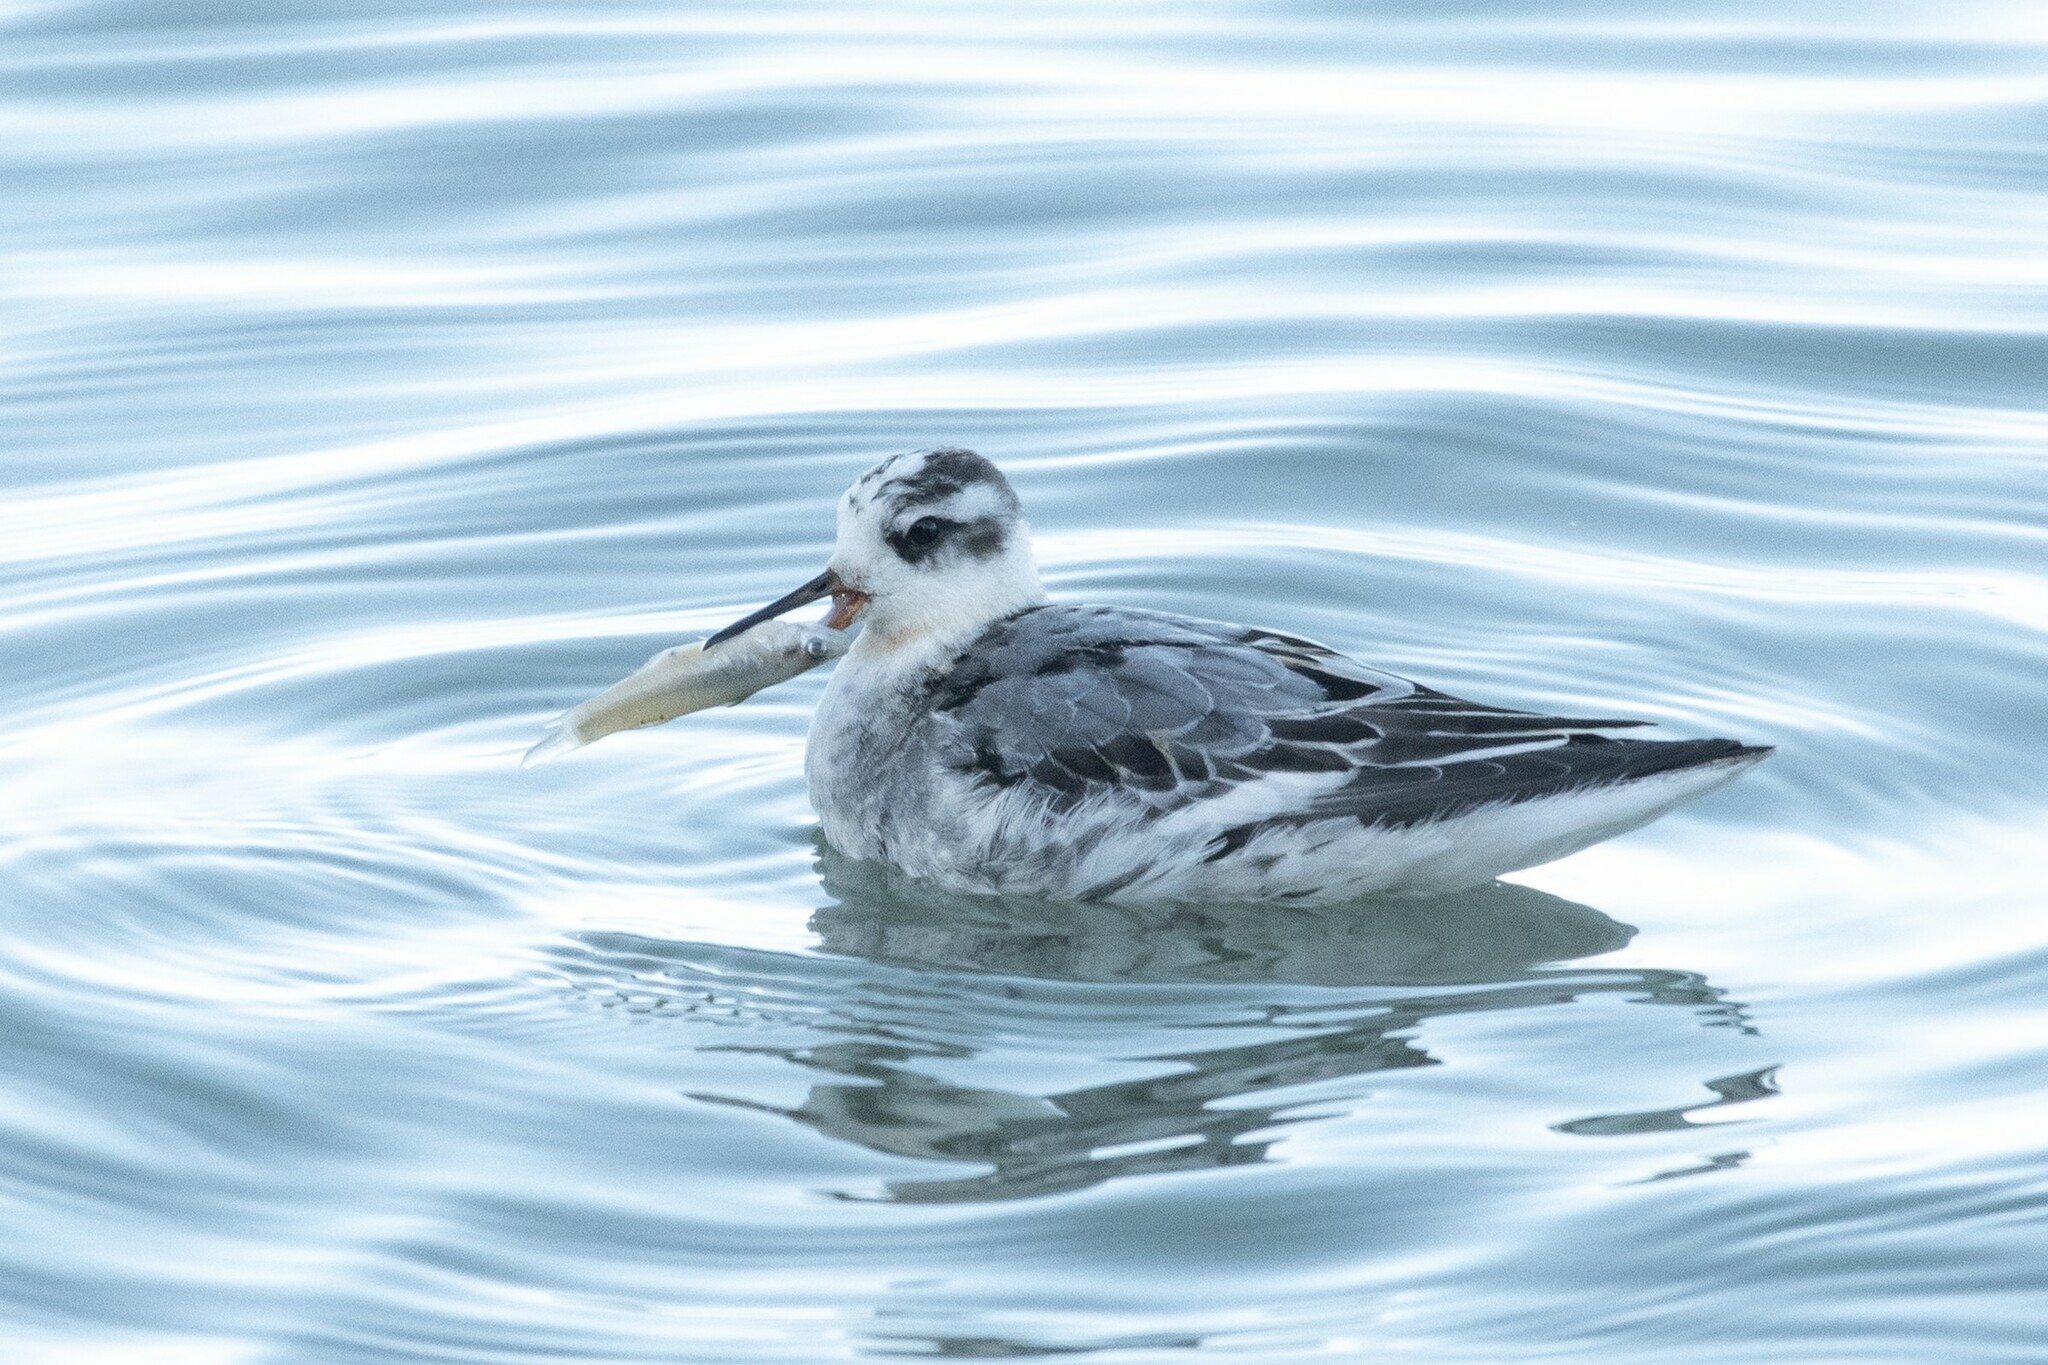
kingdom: Animalia
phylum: Chordata
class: Aves
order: Charadriiformes
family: Scolopacidae
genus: Phalaropus
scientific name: Phalaropus fulicarius
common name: Red phalarope
